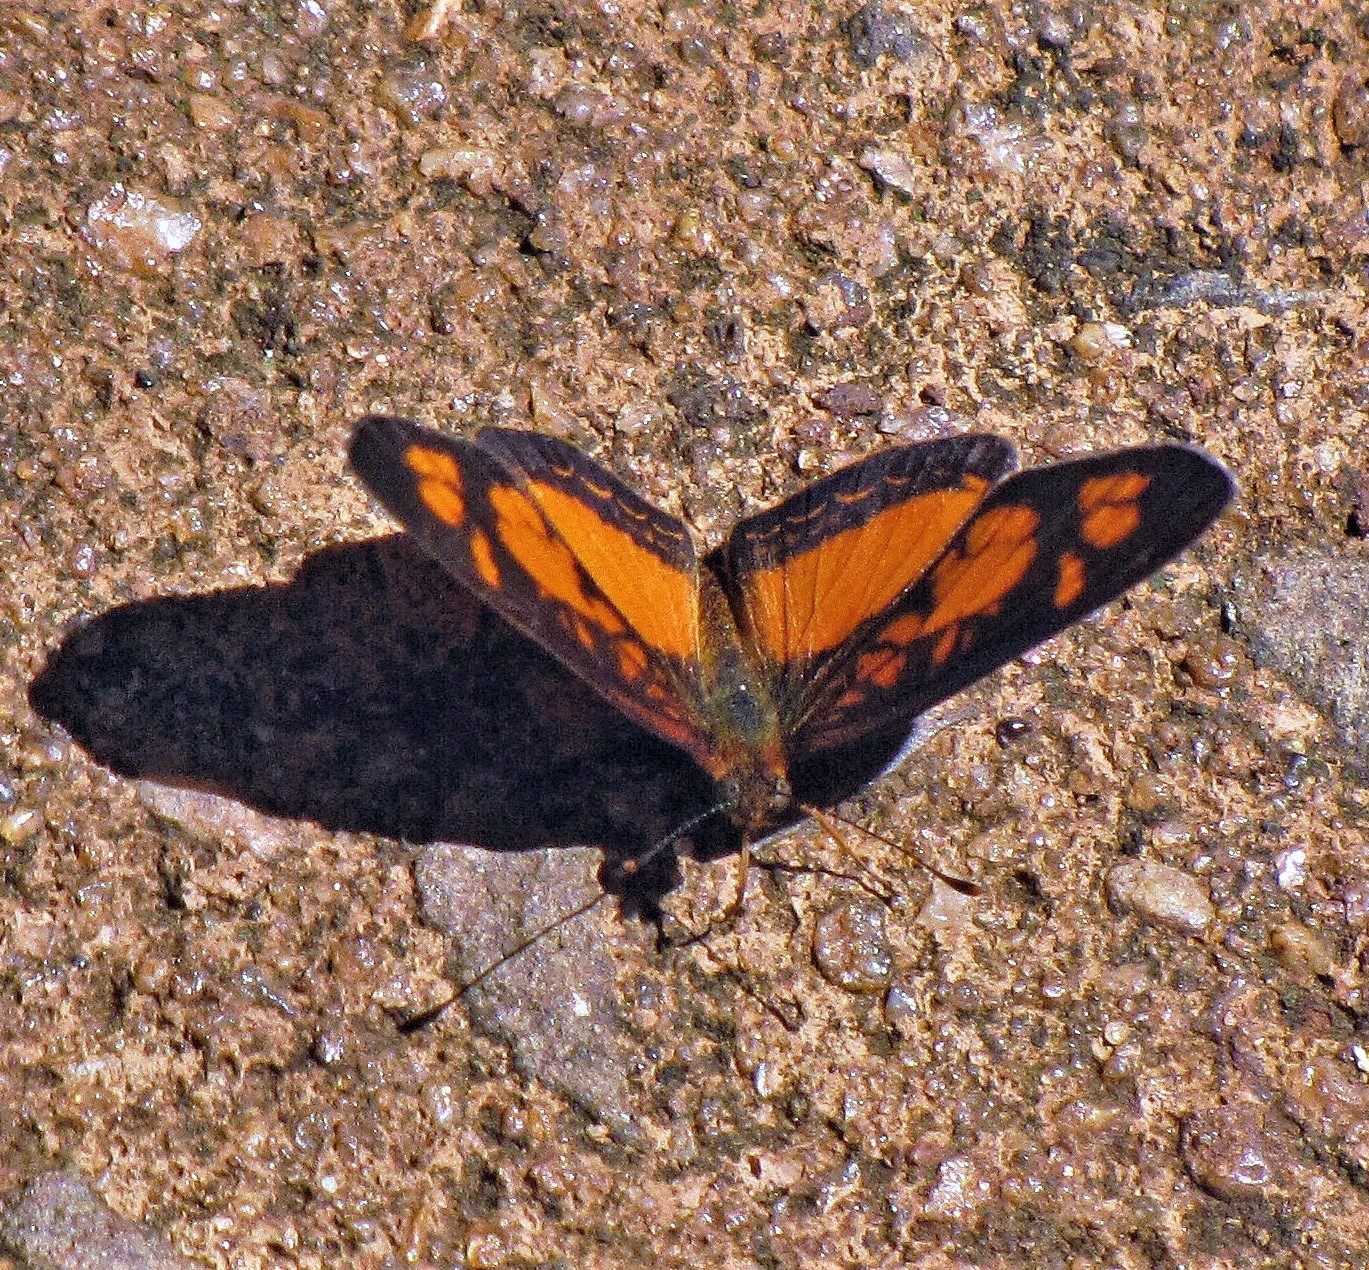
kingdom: Animalia
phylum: Arthropoda
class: Insecta
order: Lepidoptera
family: Nymphalidae
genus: Ortilia
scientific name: Ortilia dicoma
